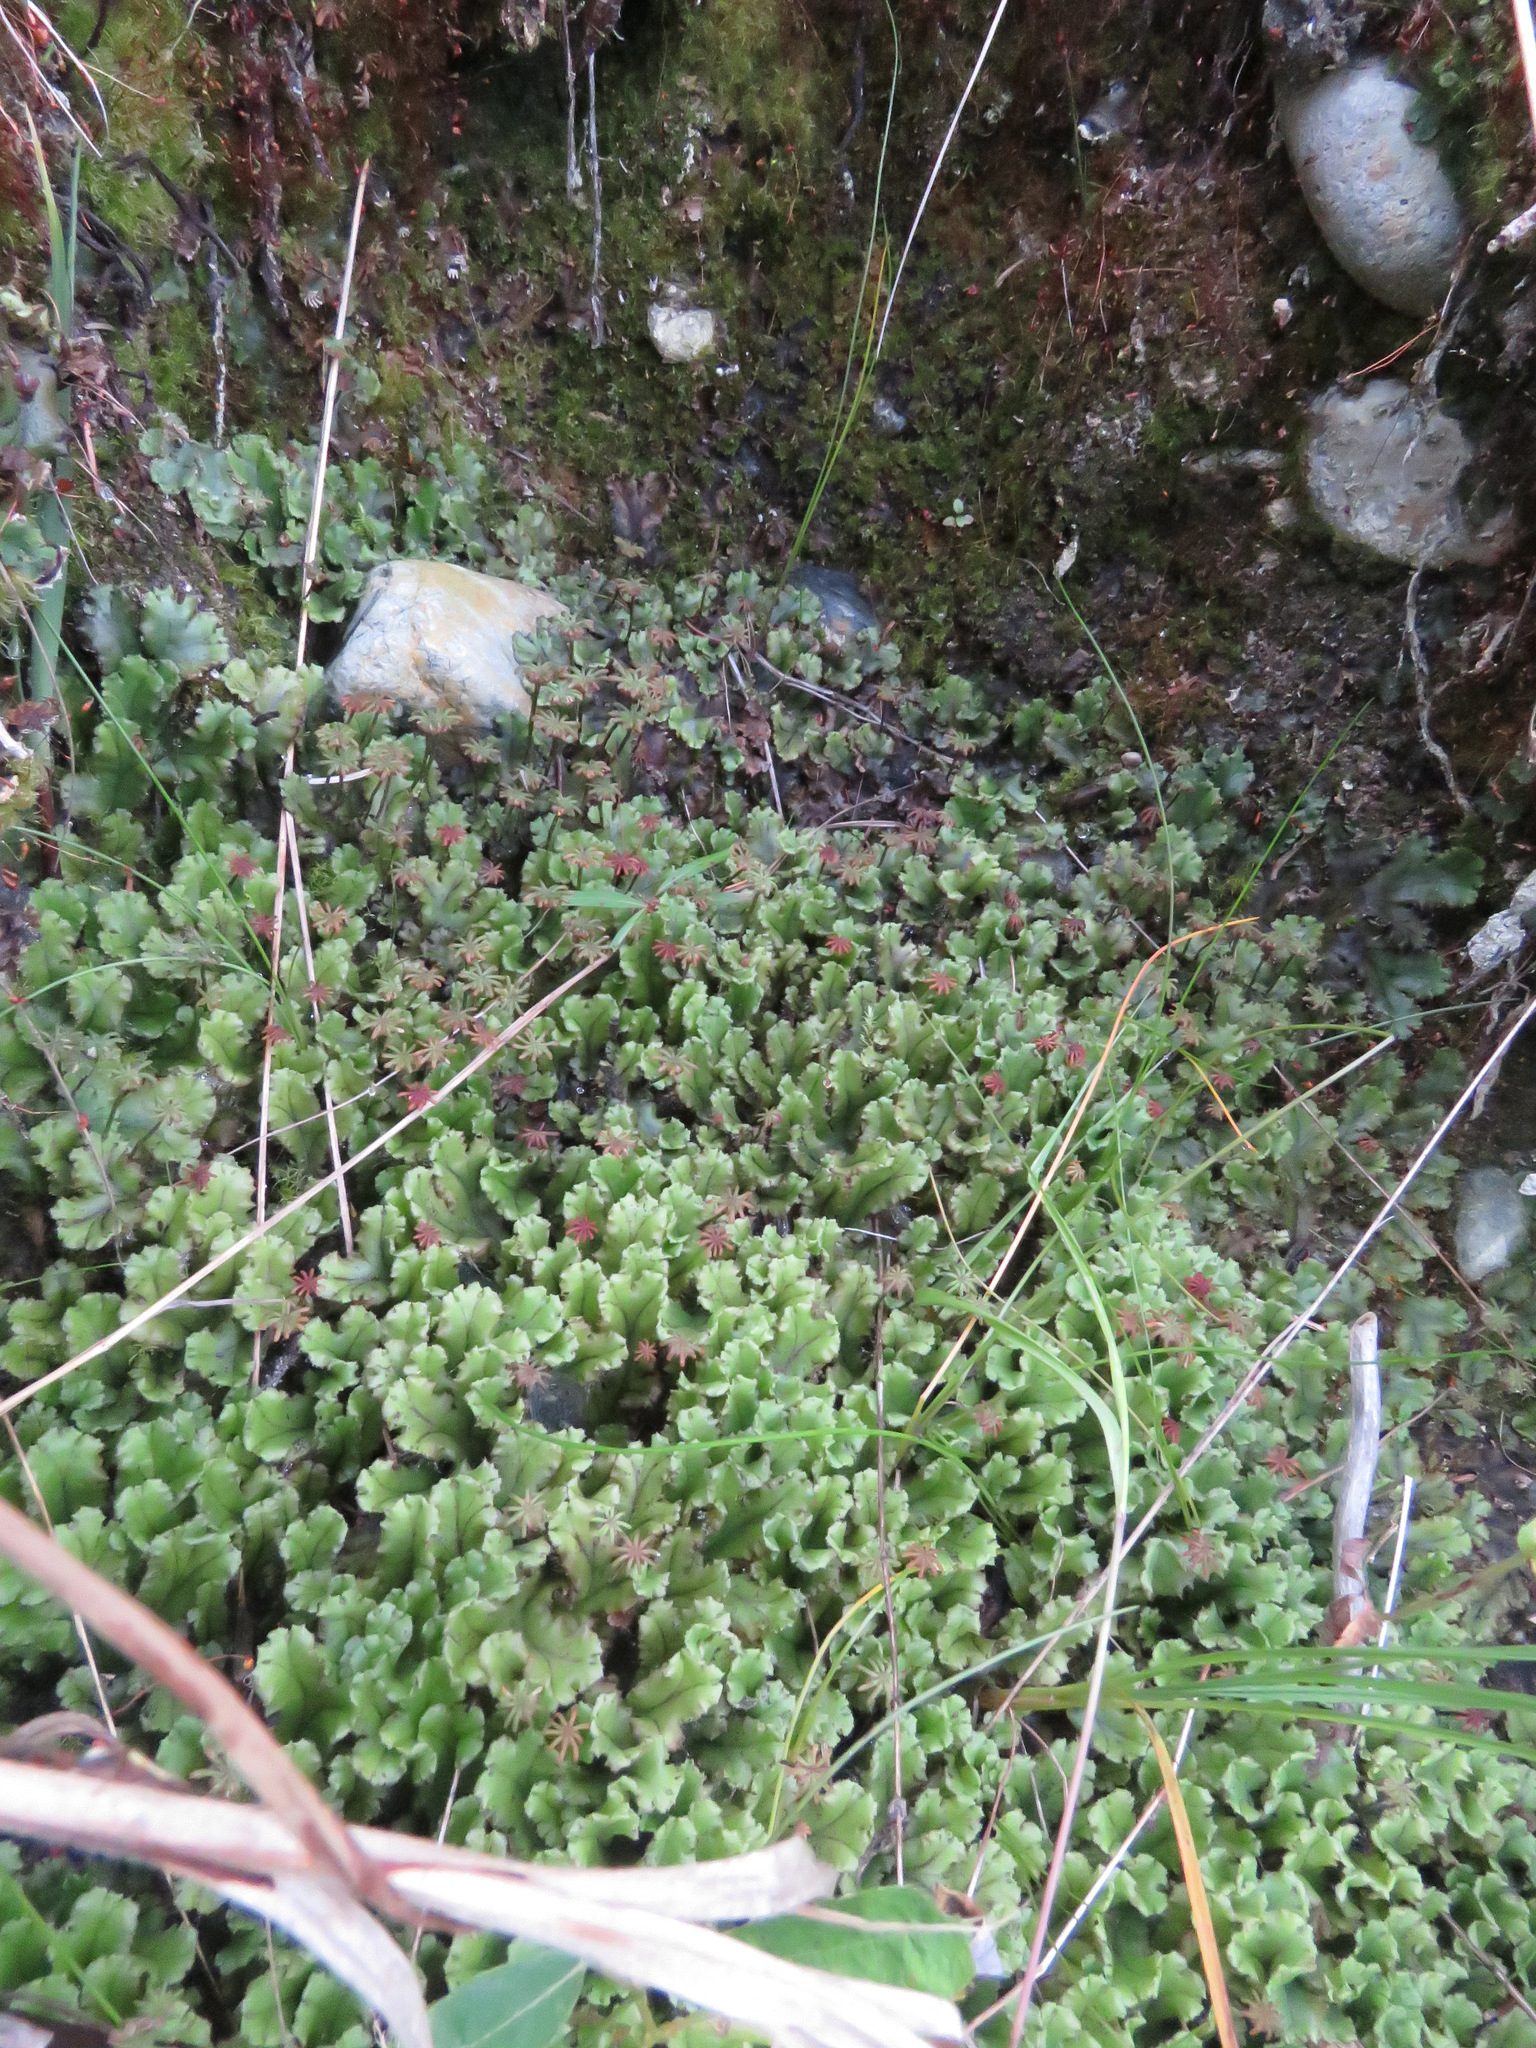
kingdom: Plantae
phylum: Marchantiophyta
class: Marchantiopsida
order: Marchantiales
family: Marchantiaceae
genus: Marchantia
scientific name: Marchantia polymorpha
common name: Common liverwort
